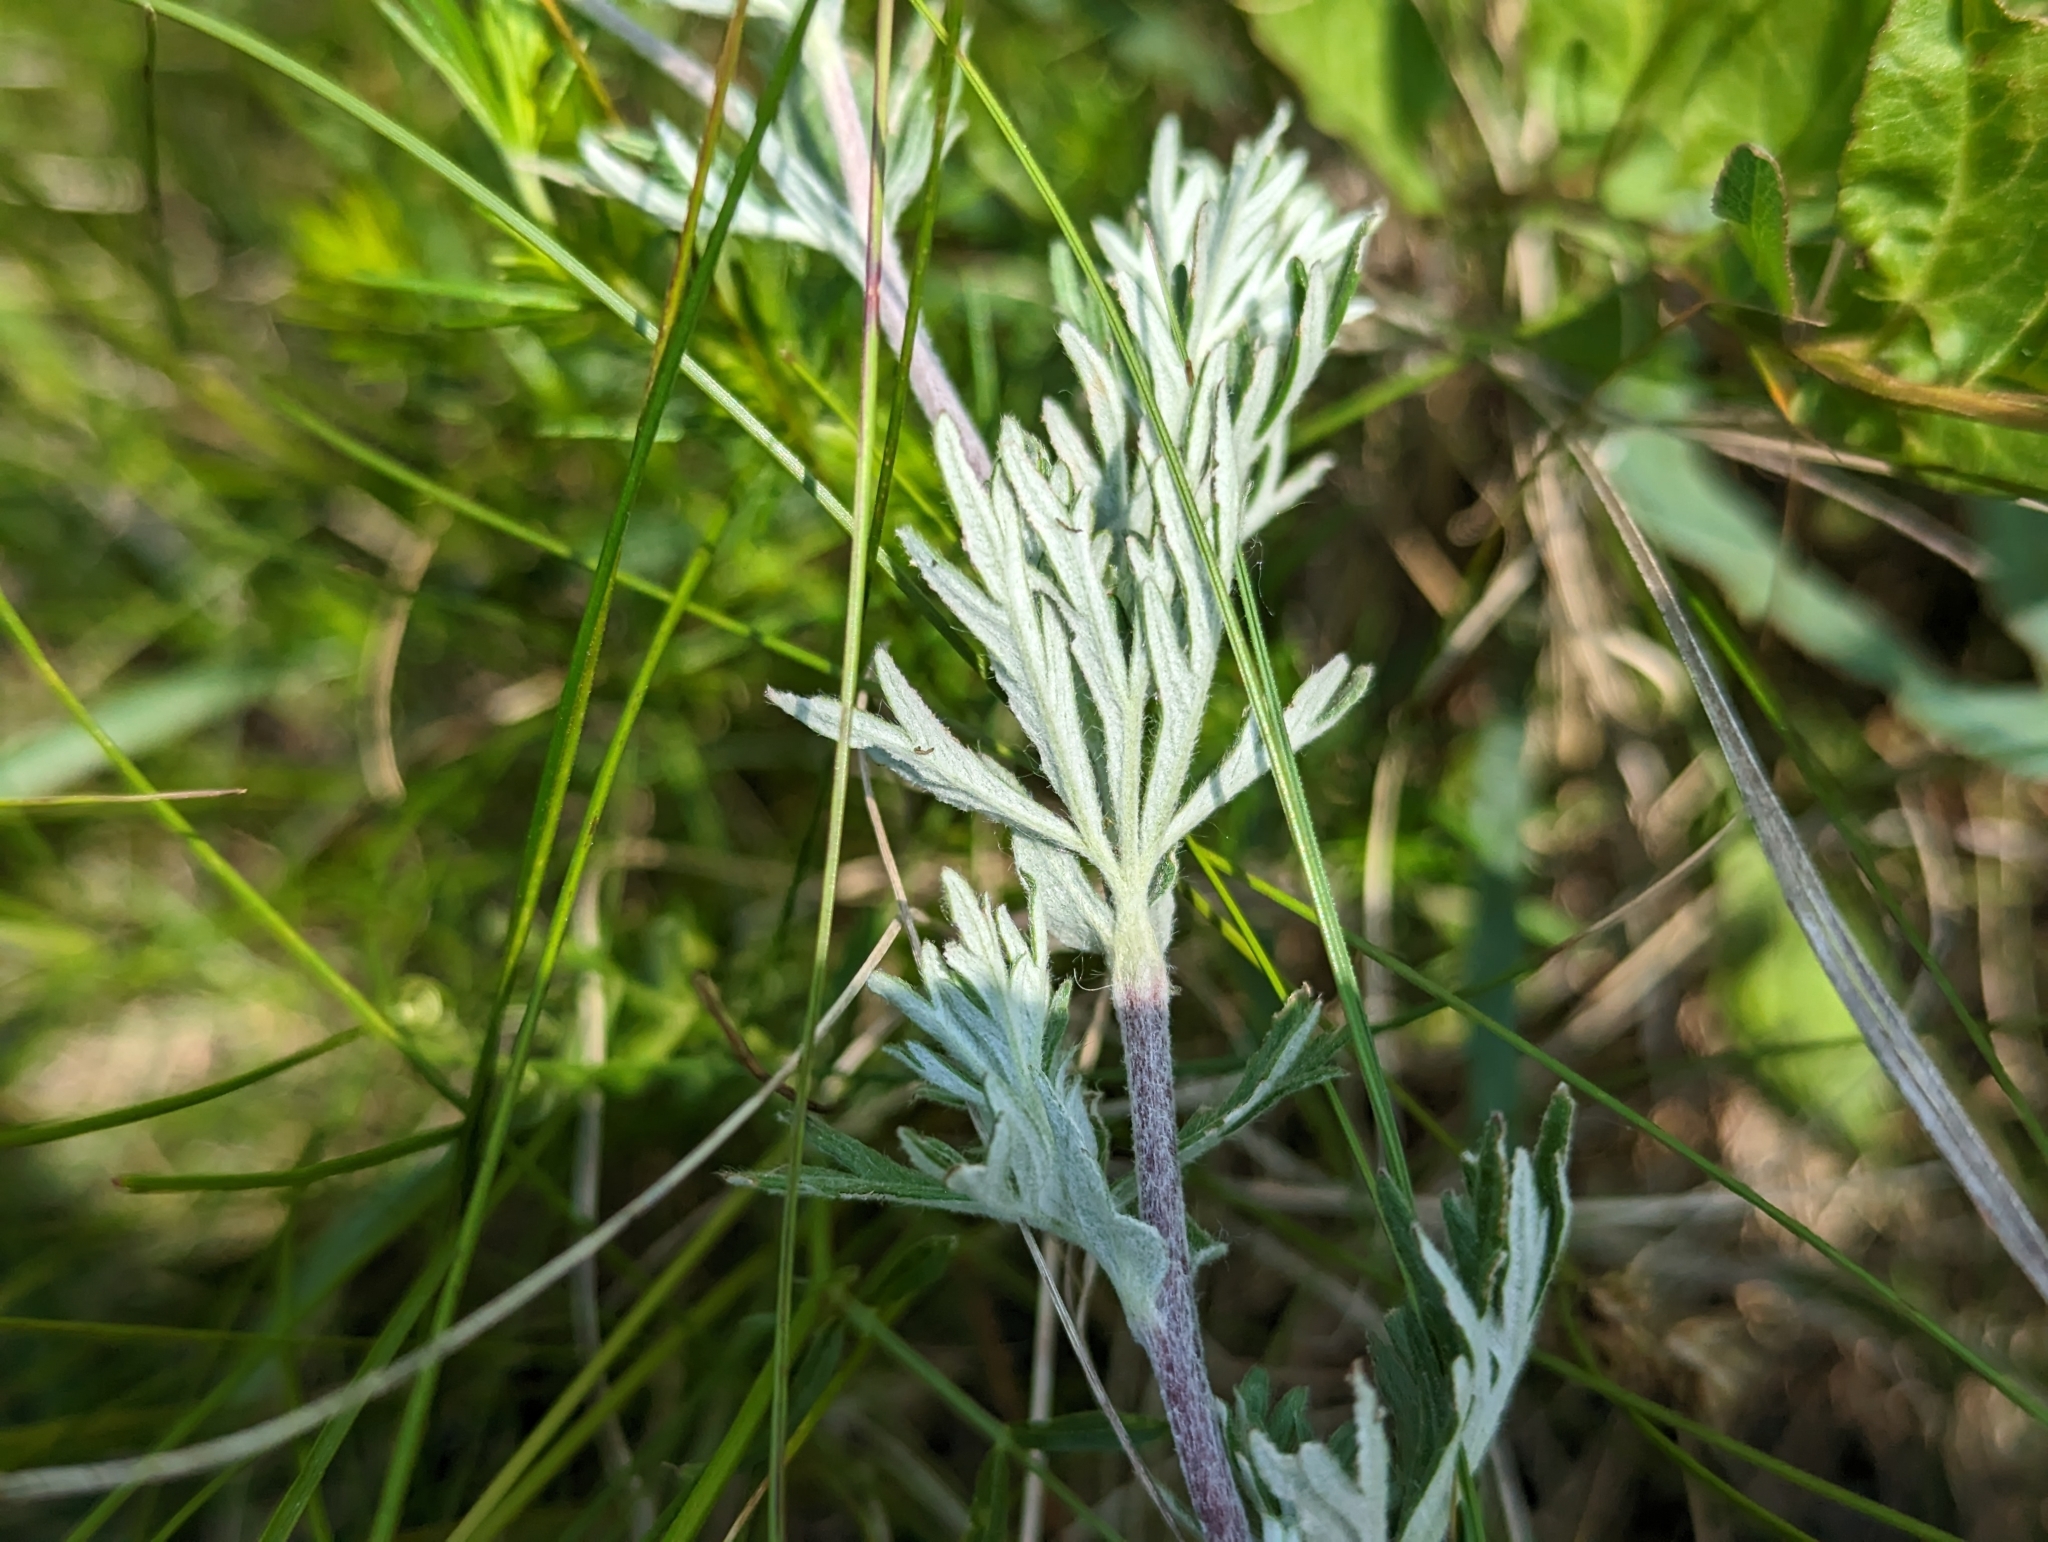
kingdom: Plantae
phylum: Tracheophyta
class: Magnoliopsida
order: Rosales
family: Rosaceae
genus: Potentilla
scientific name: Potentilla argentea
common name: Hoary cinquefoil
